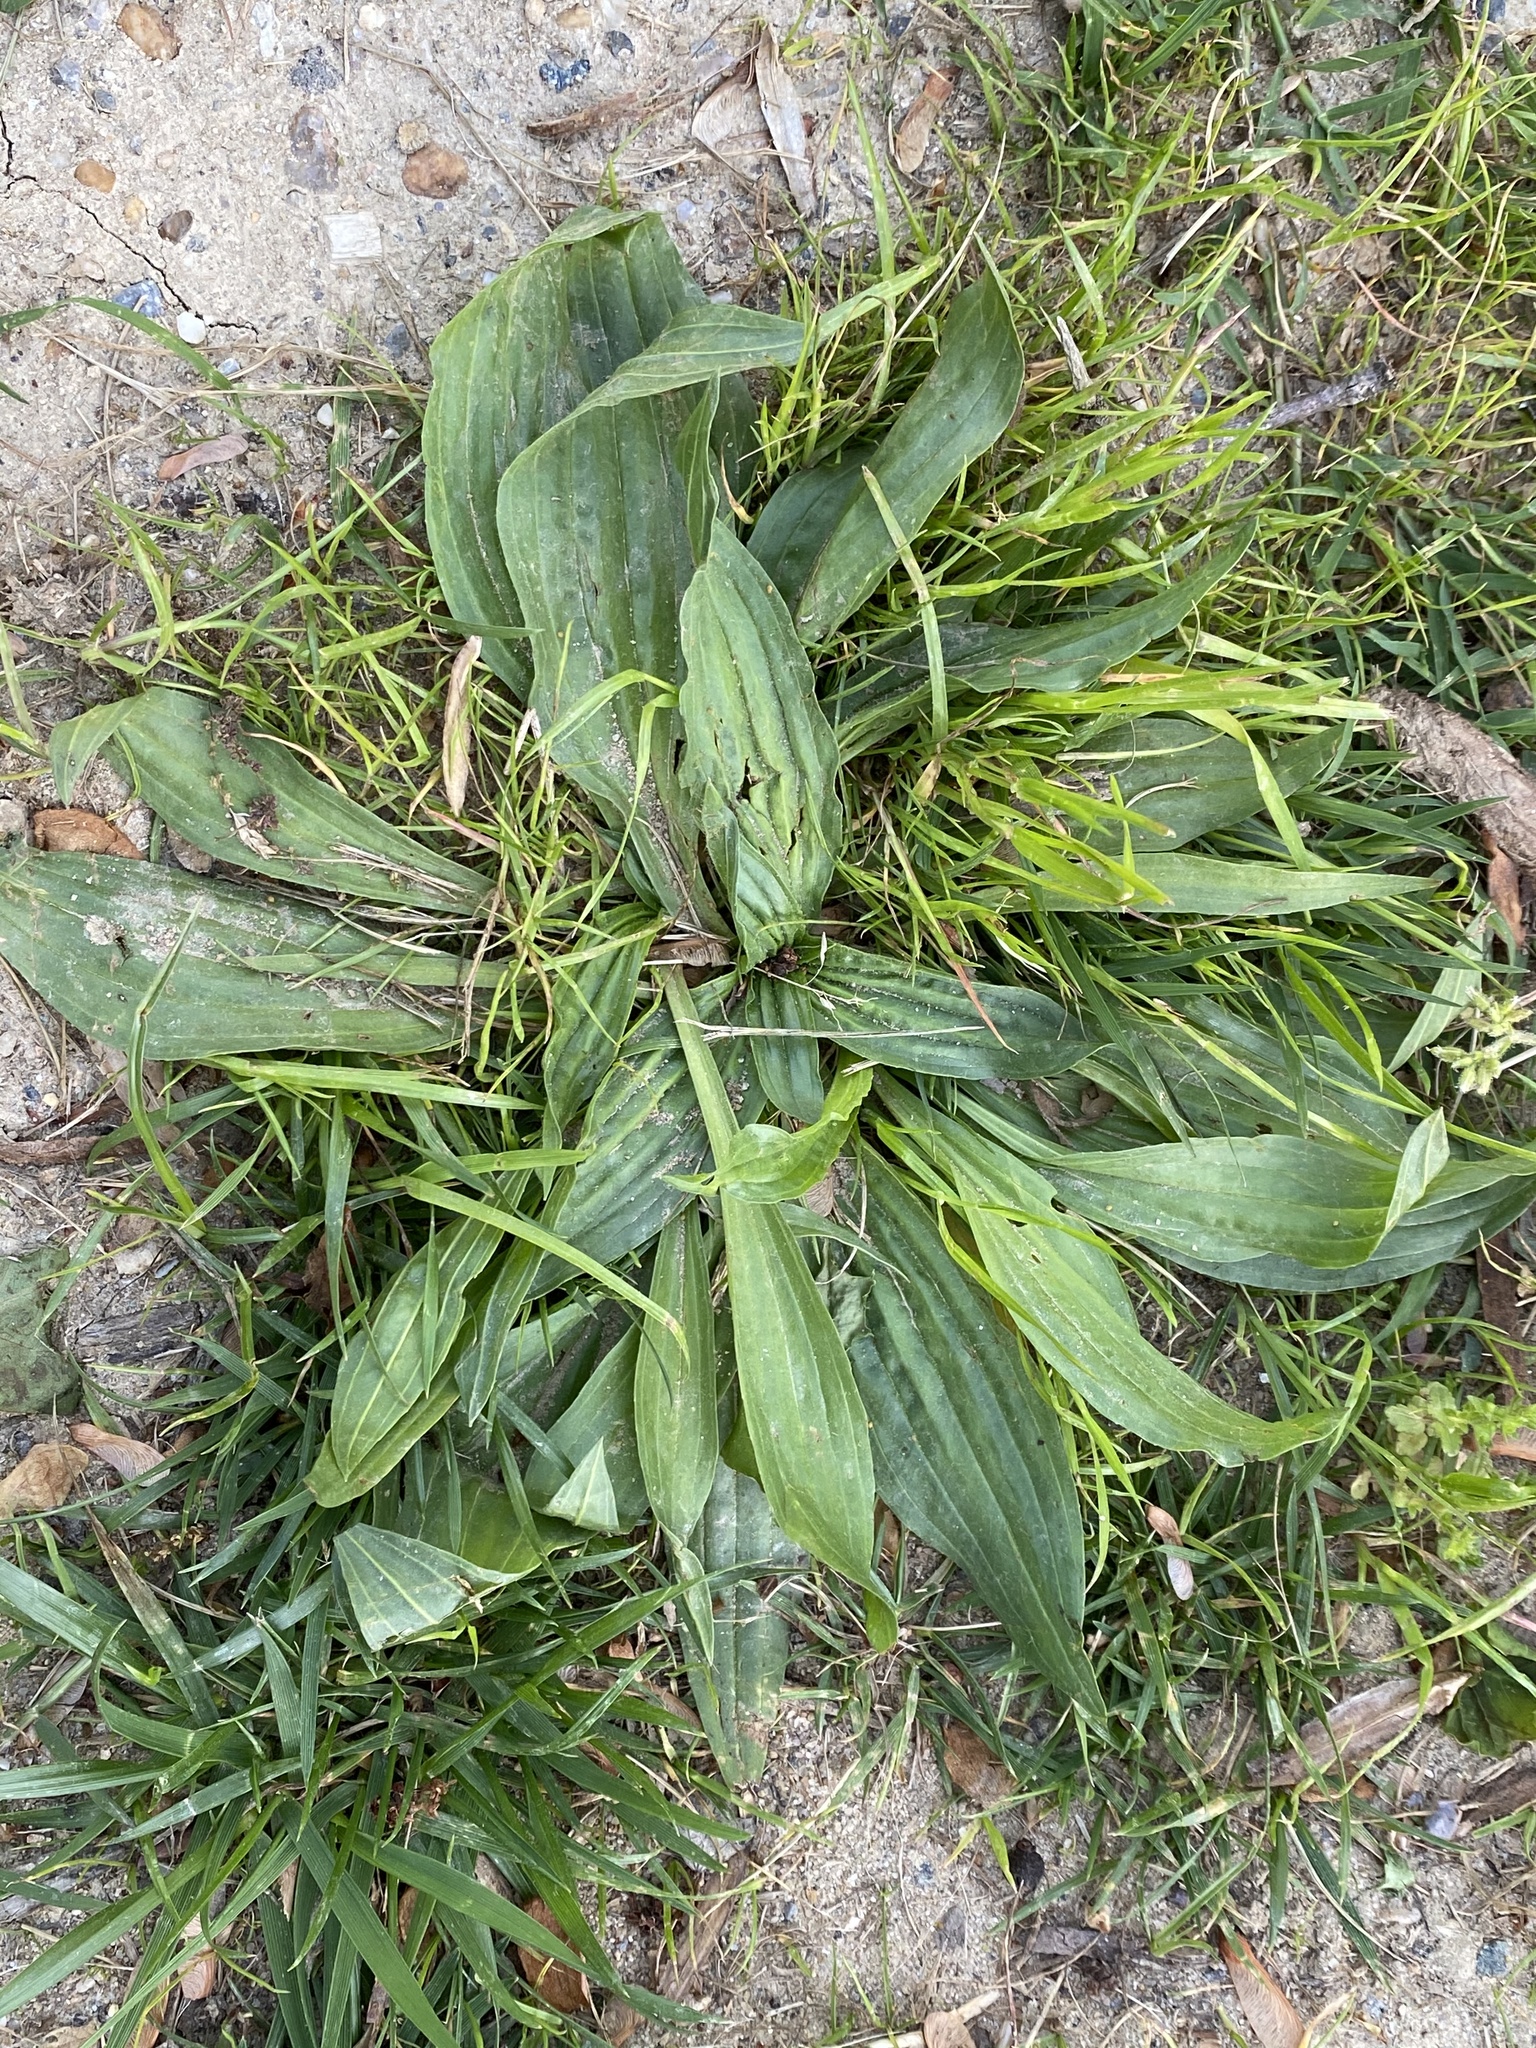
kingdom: Plantae
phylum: Tracheophyta
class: Magnoliopsida
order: Lamiales
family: Plantaginaceae
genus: Plantago
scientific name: Plantago lanceolata
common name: Ribwort plantain
